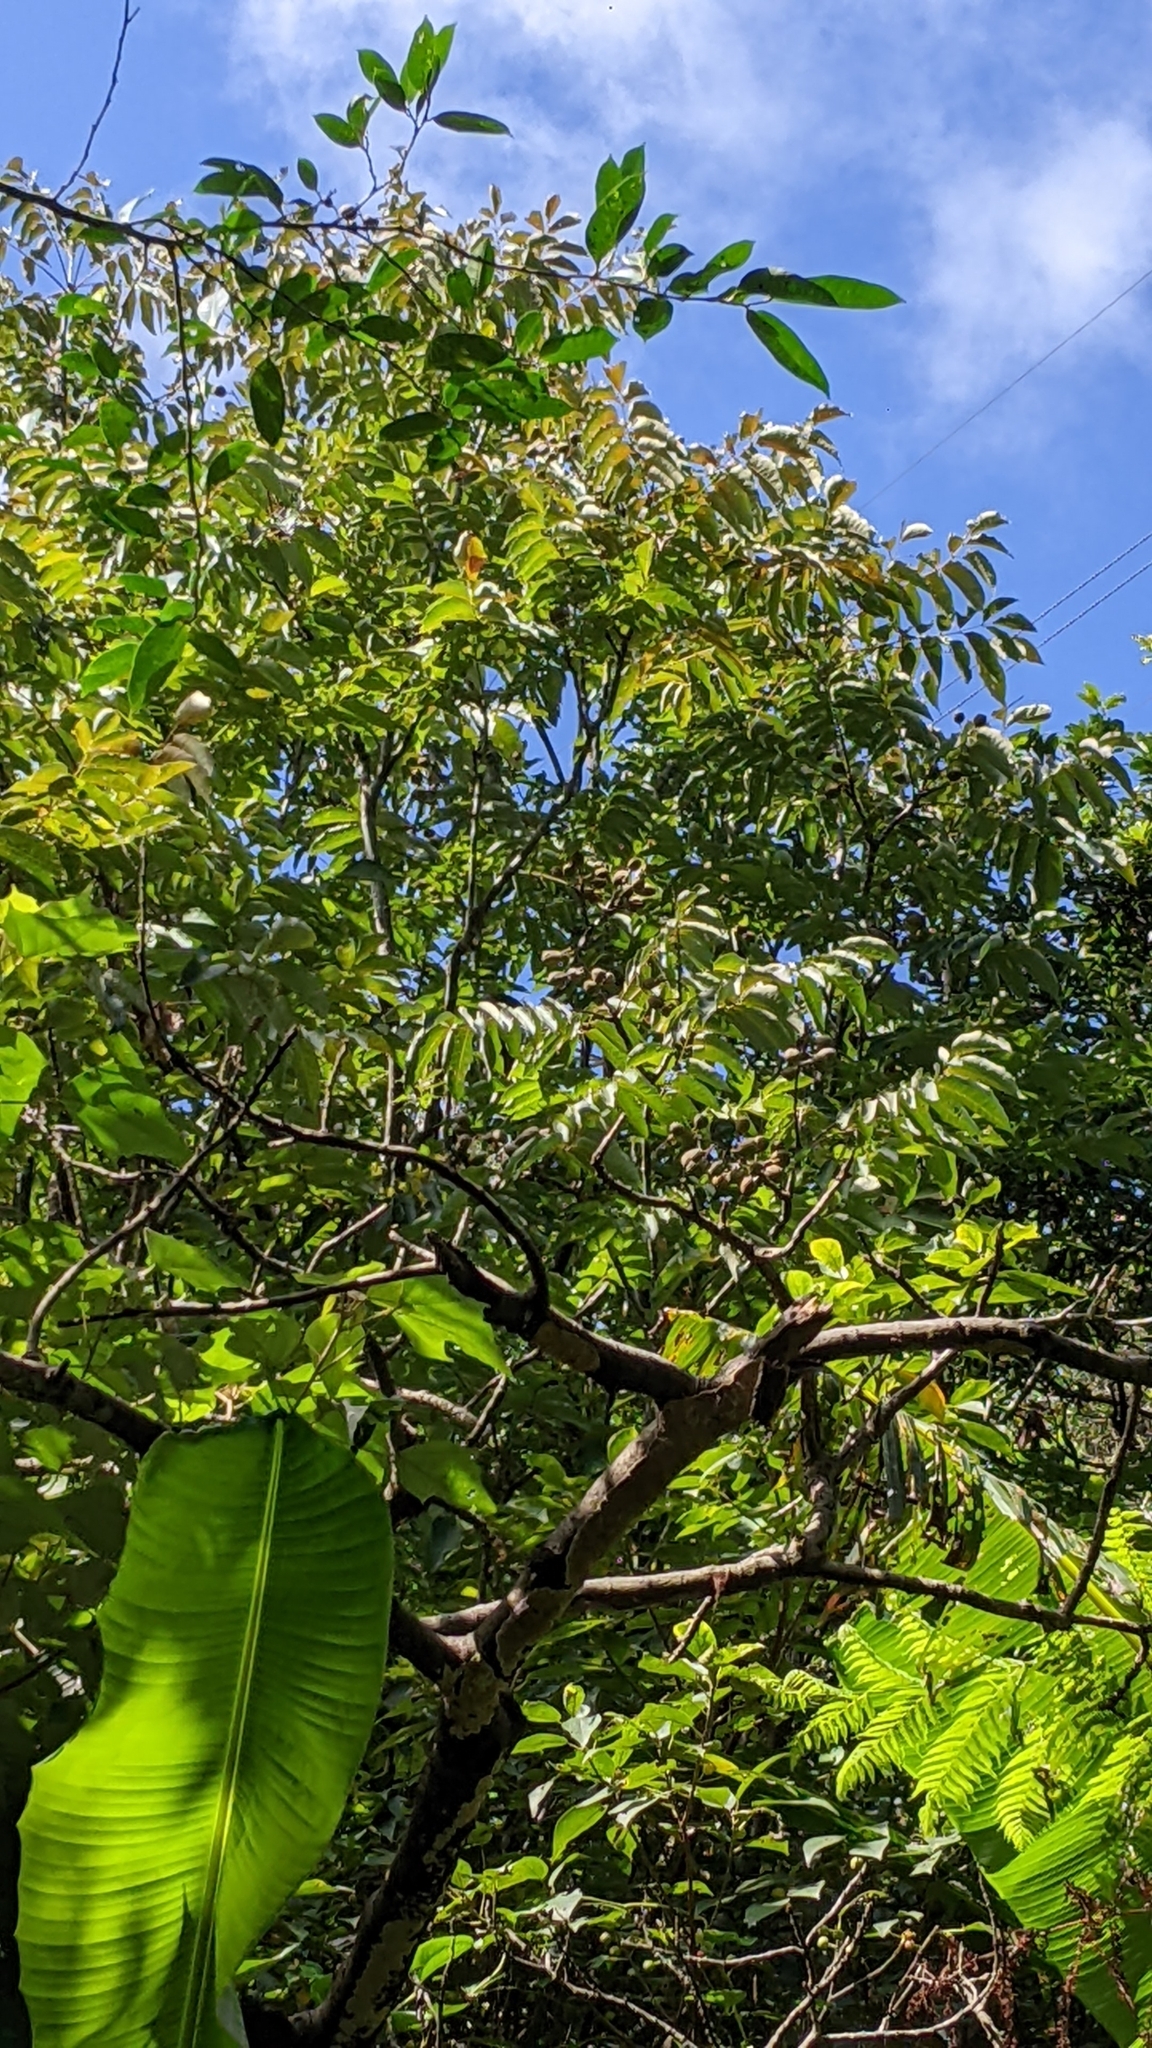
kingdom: Plantae
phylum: Tracheophyta
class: Magnoliopsida
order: Brassicales
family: Akaniaceae
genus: Bretschneidera
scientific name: Bretschneidera sinensis
